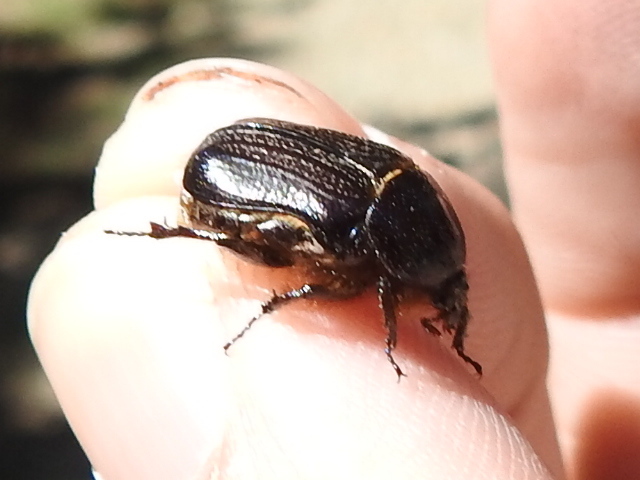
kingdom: Animalia
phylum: Arthropoda
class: Insecta
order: Coleoptera
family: Scarabaeidae
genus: Euphoria
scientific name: Euphoria verticalis
